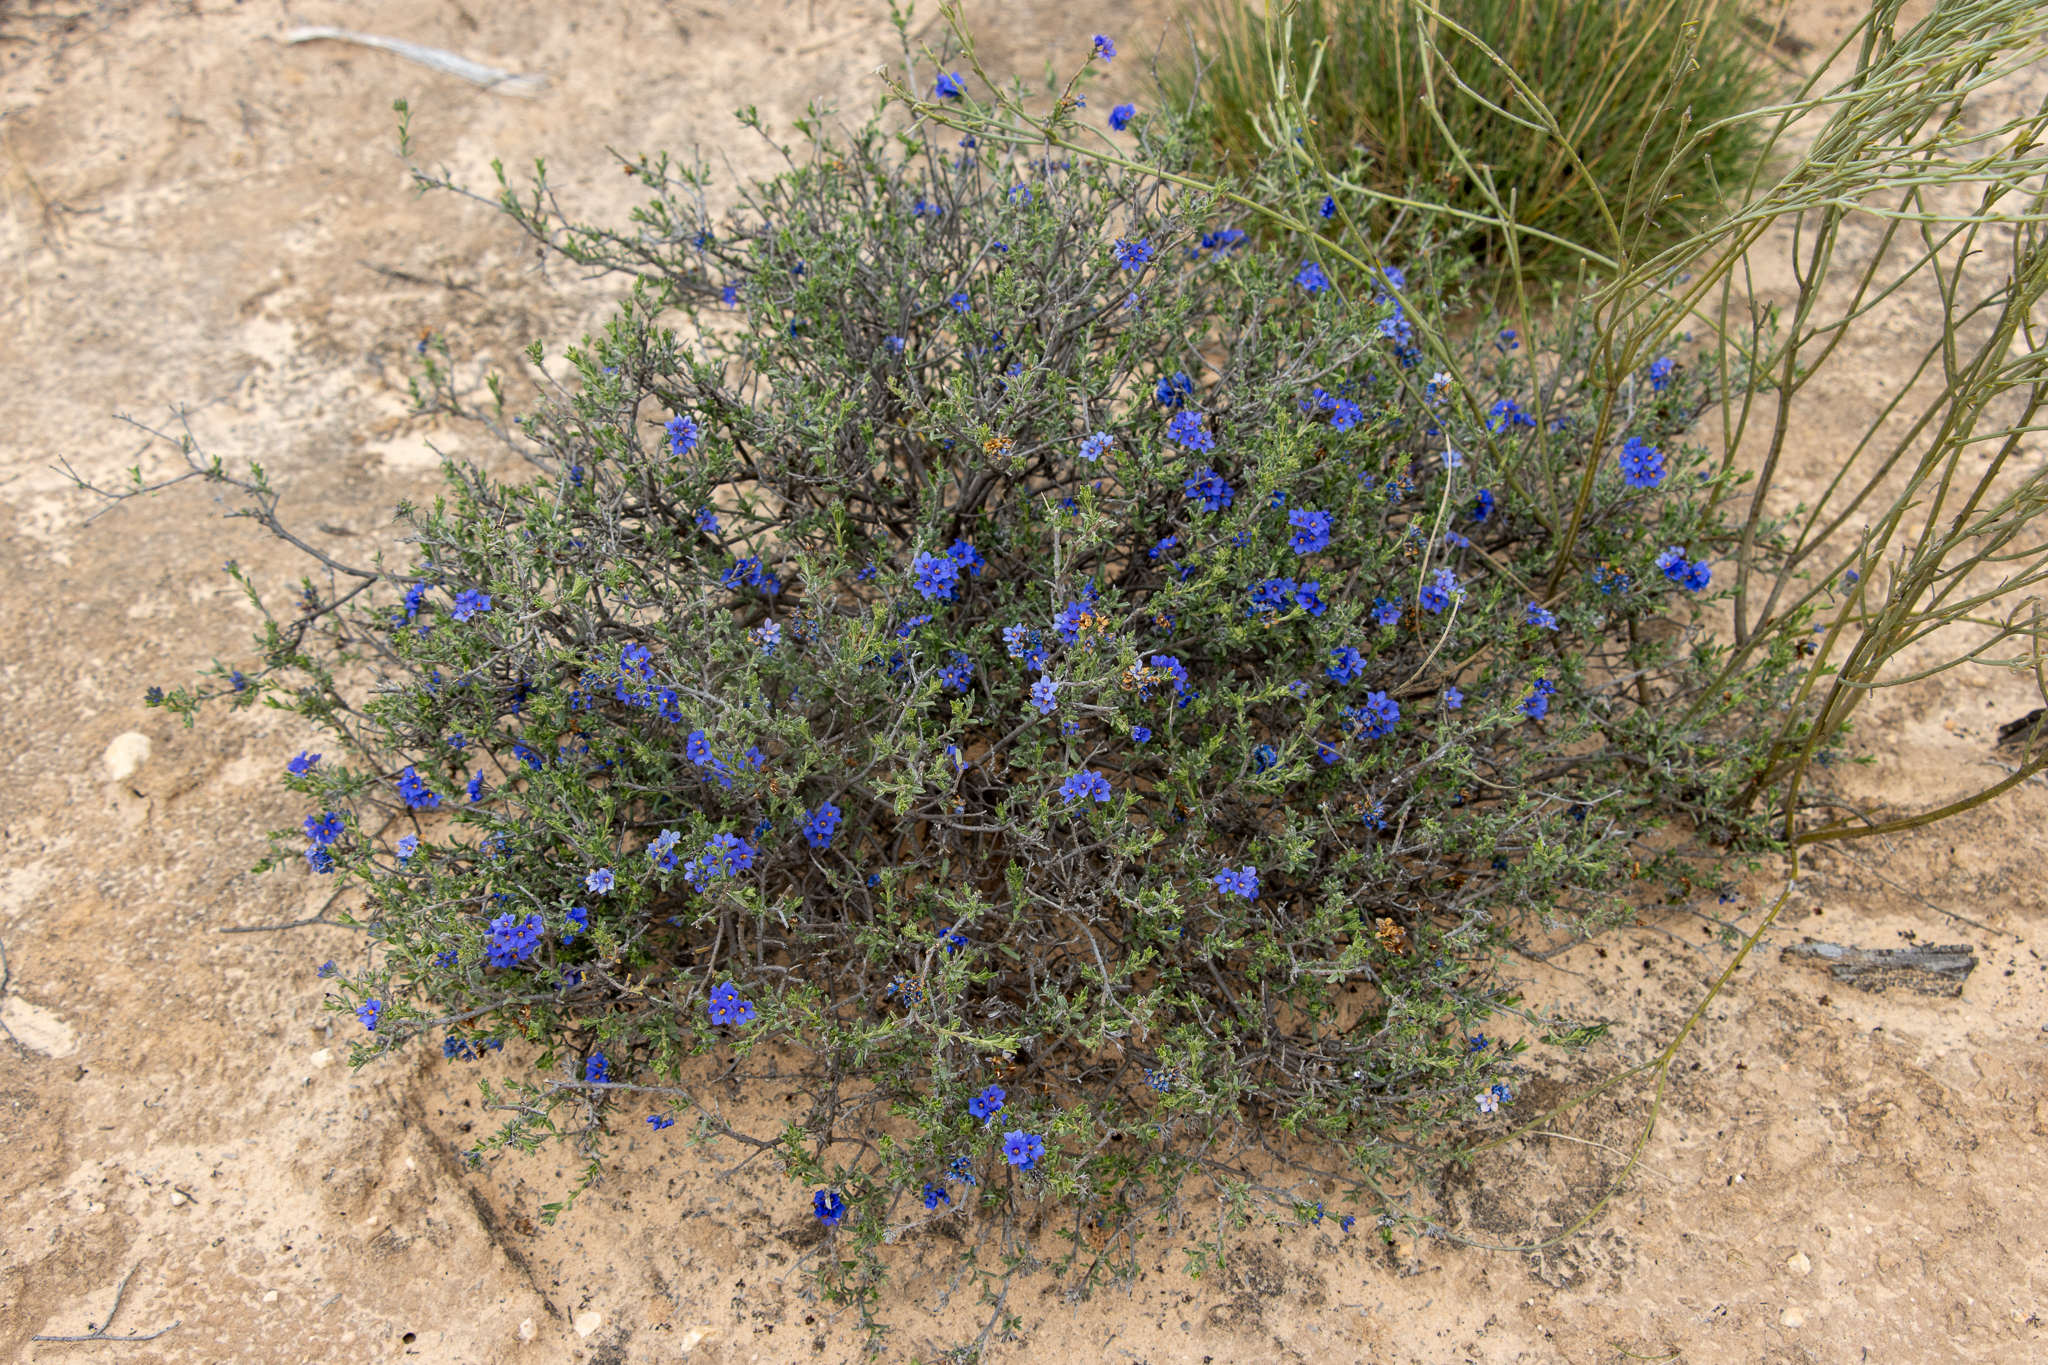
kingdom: Plantae
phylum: Tracheophyta
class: Magnoliopsida
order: Boraginales
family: Ehretiaceae
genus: Halgania
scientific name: Halgania cyanea
